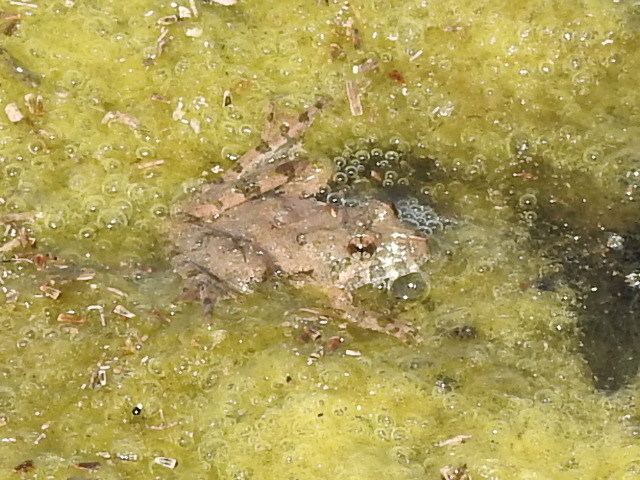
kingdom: Animalia
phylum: Chordata
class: Amphibia
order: Anura
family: Hylidae
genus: Acris
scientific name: Acris blanchardi
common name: Blanchard's cricket frog
